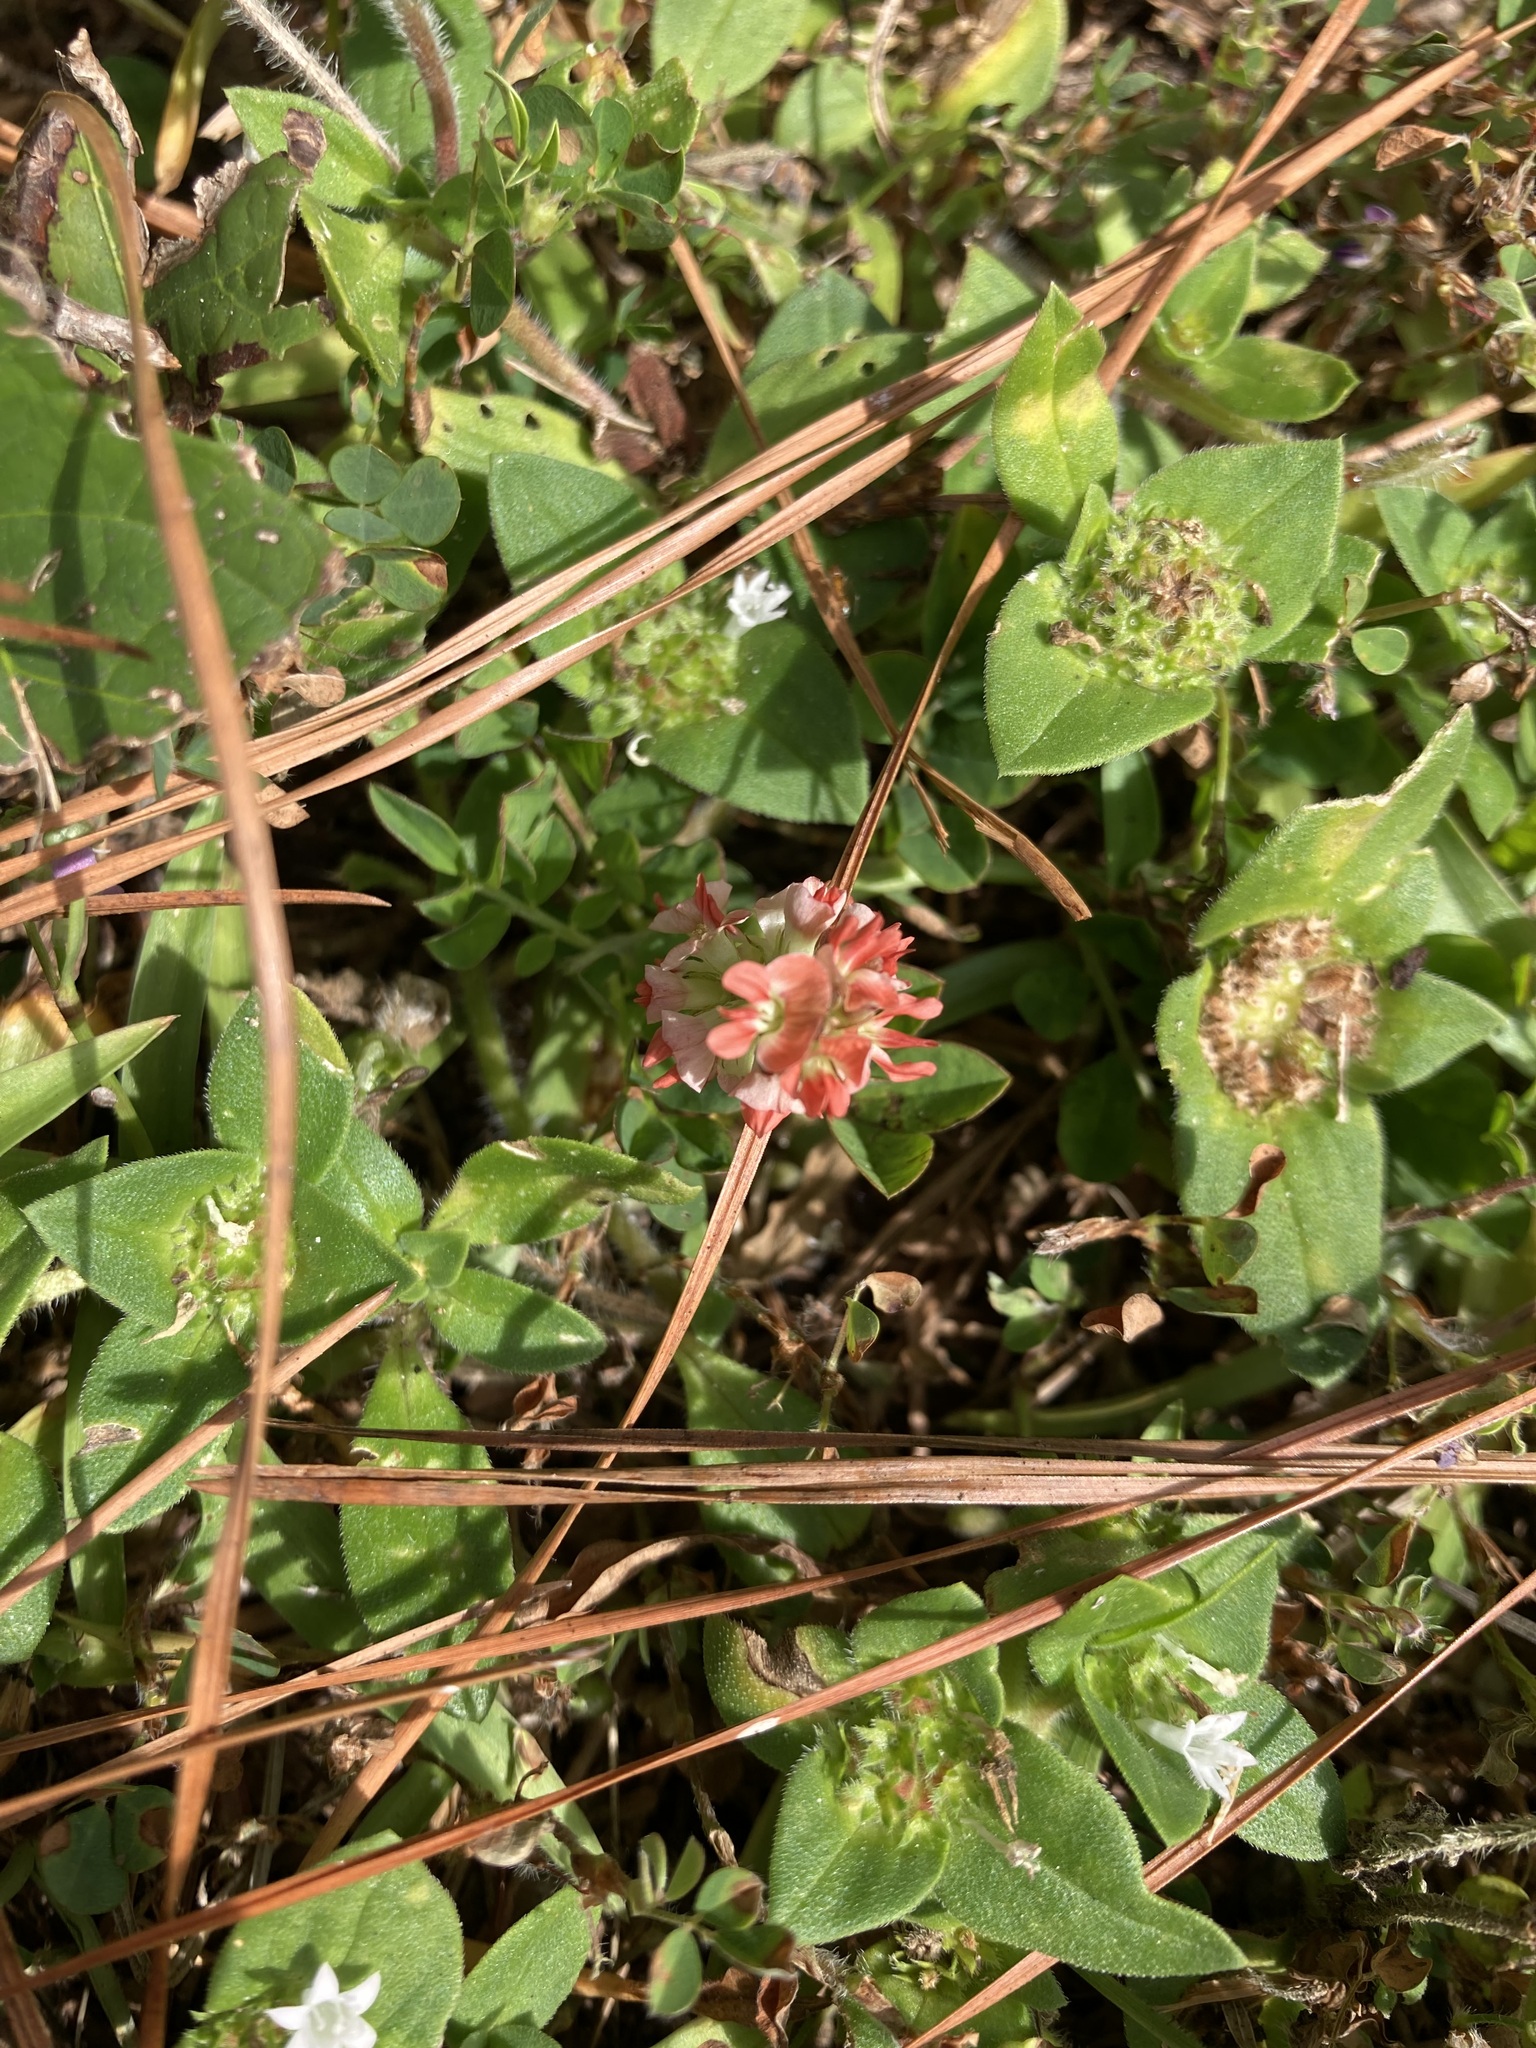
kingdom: Plantae
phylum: Tracheophyta
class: Magnoliopsida
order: Fabales
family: Fabaceae
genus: Indigofera
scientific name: Indigofera spicata
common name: Creeping indigo
